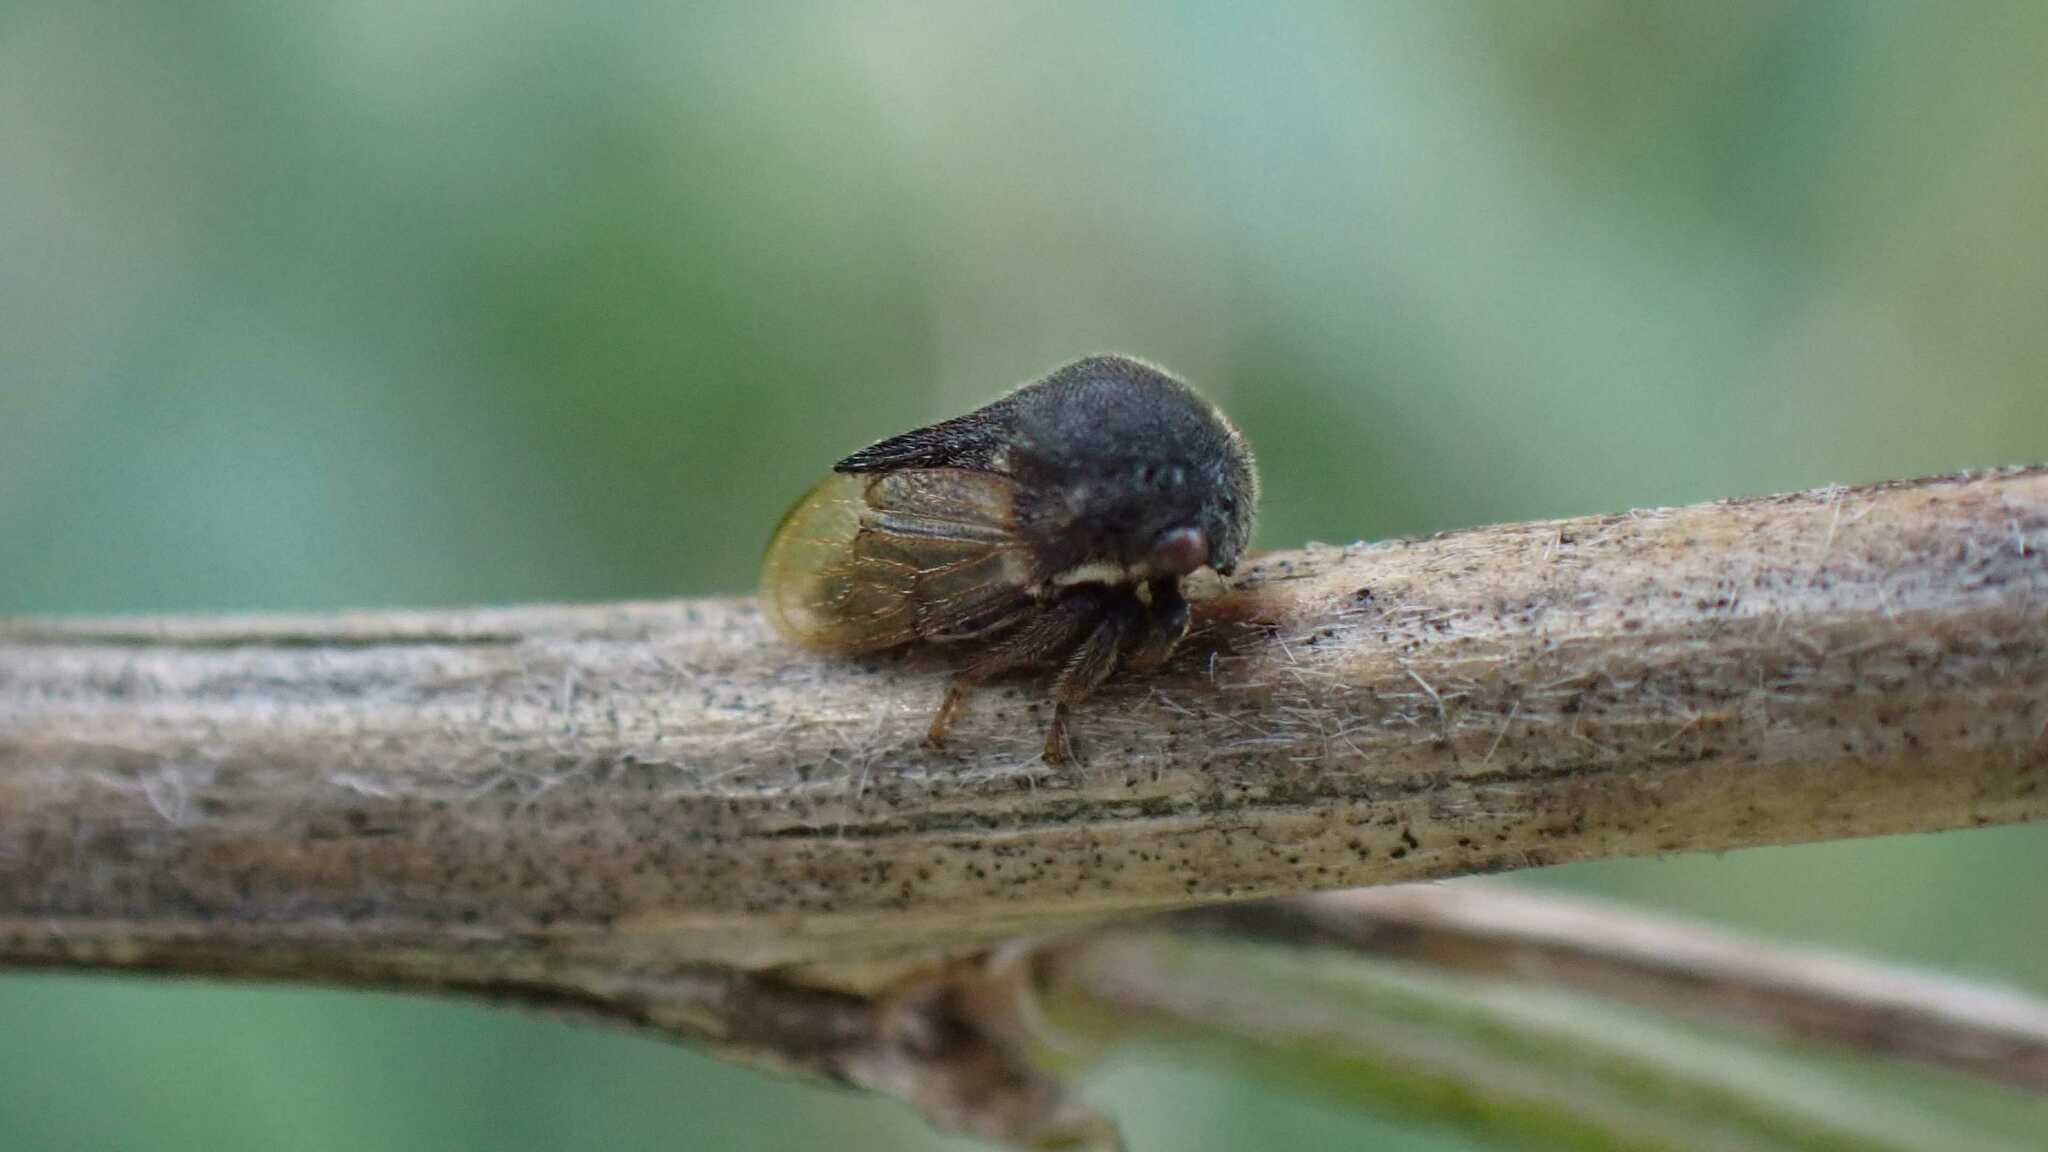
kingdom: Animalia
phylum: Arthropoda
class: Insecta
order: Hemiptera
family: Membracidae
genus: Gargara
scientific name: Gargara genistae
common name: Treehopper
